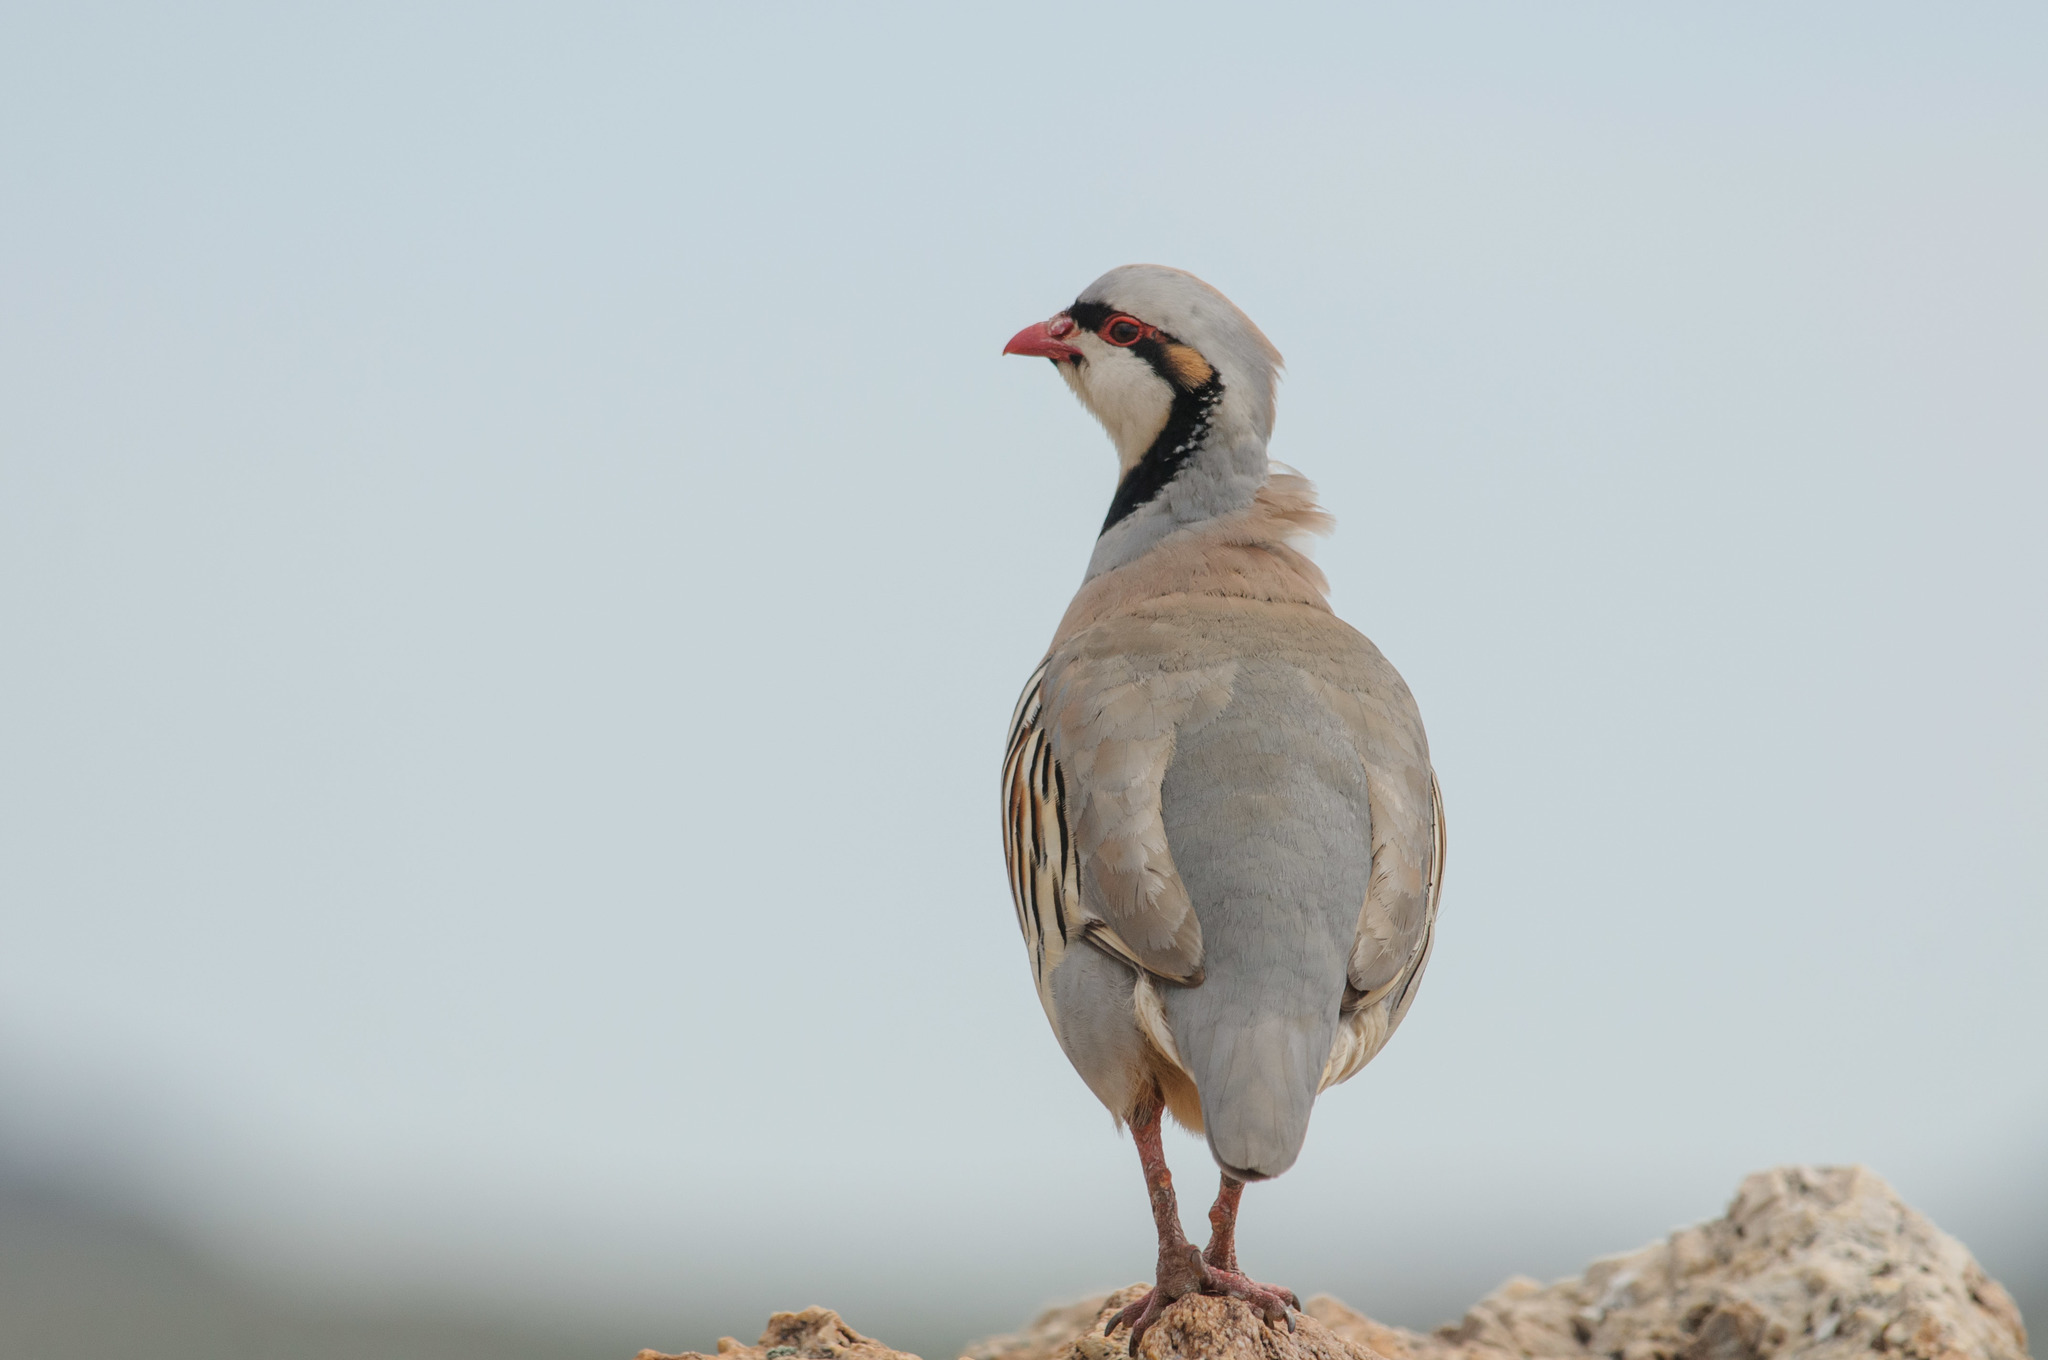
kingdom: Animalia
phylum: Chordata
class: Aves
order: Galliformes
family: Phasianidae
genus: Alectoris
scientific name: Alectoris chukar
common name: Chukar
